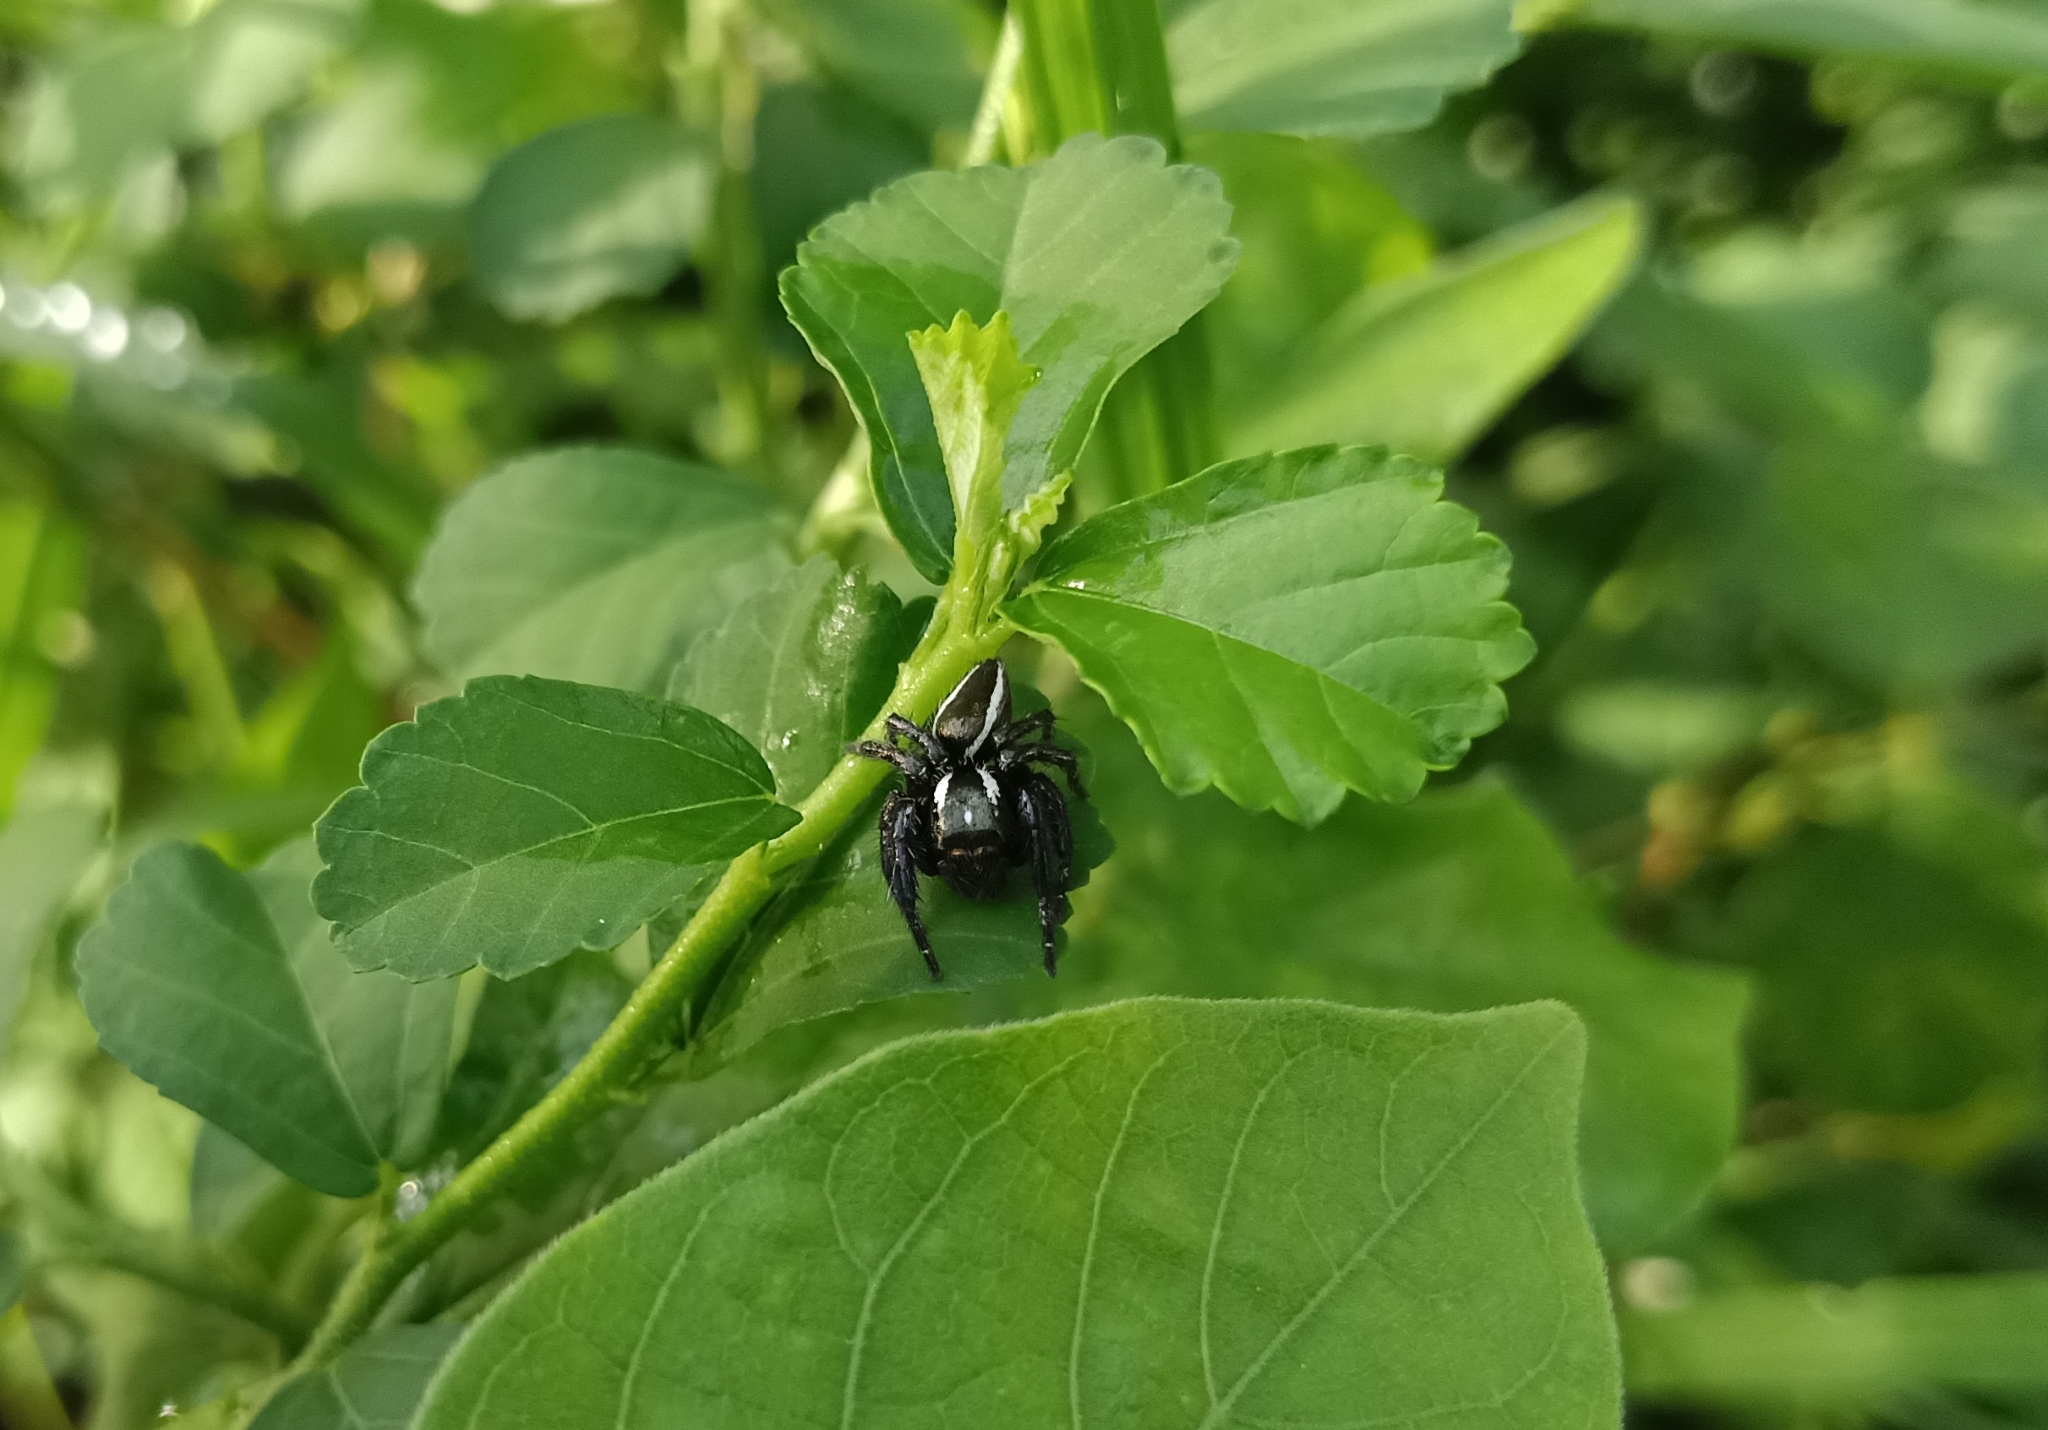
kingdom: Animalia
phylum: Arthropoda
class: Arachnida
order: Araneae
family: Salticidae
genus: Carrhotus
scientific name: Carrhotus viduus
